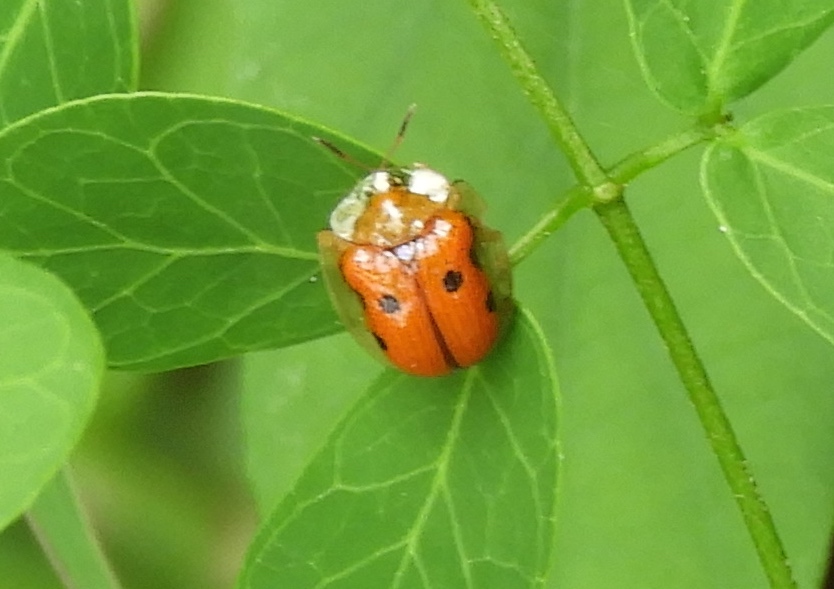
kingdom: Animalia
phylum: Arthropoda
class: Insecta
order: Coleoptera
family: Chrysomelidae
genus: Charidotella
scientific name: Charidotella sexpunctata
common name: Golden tortoise beetle
